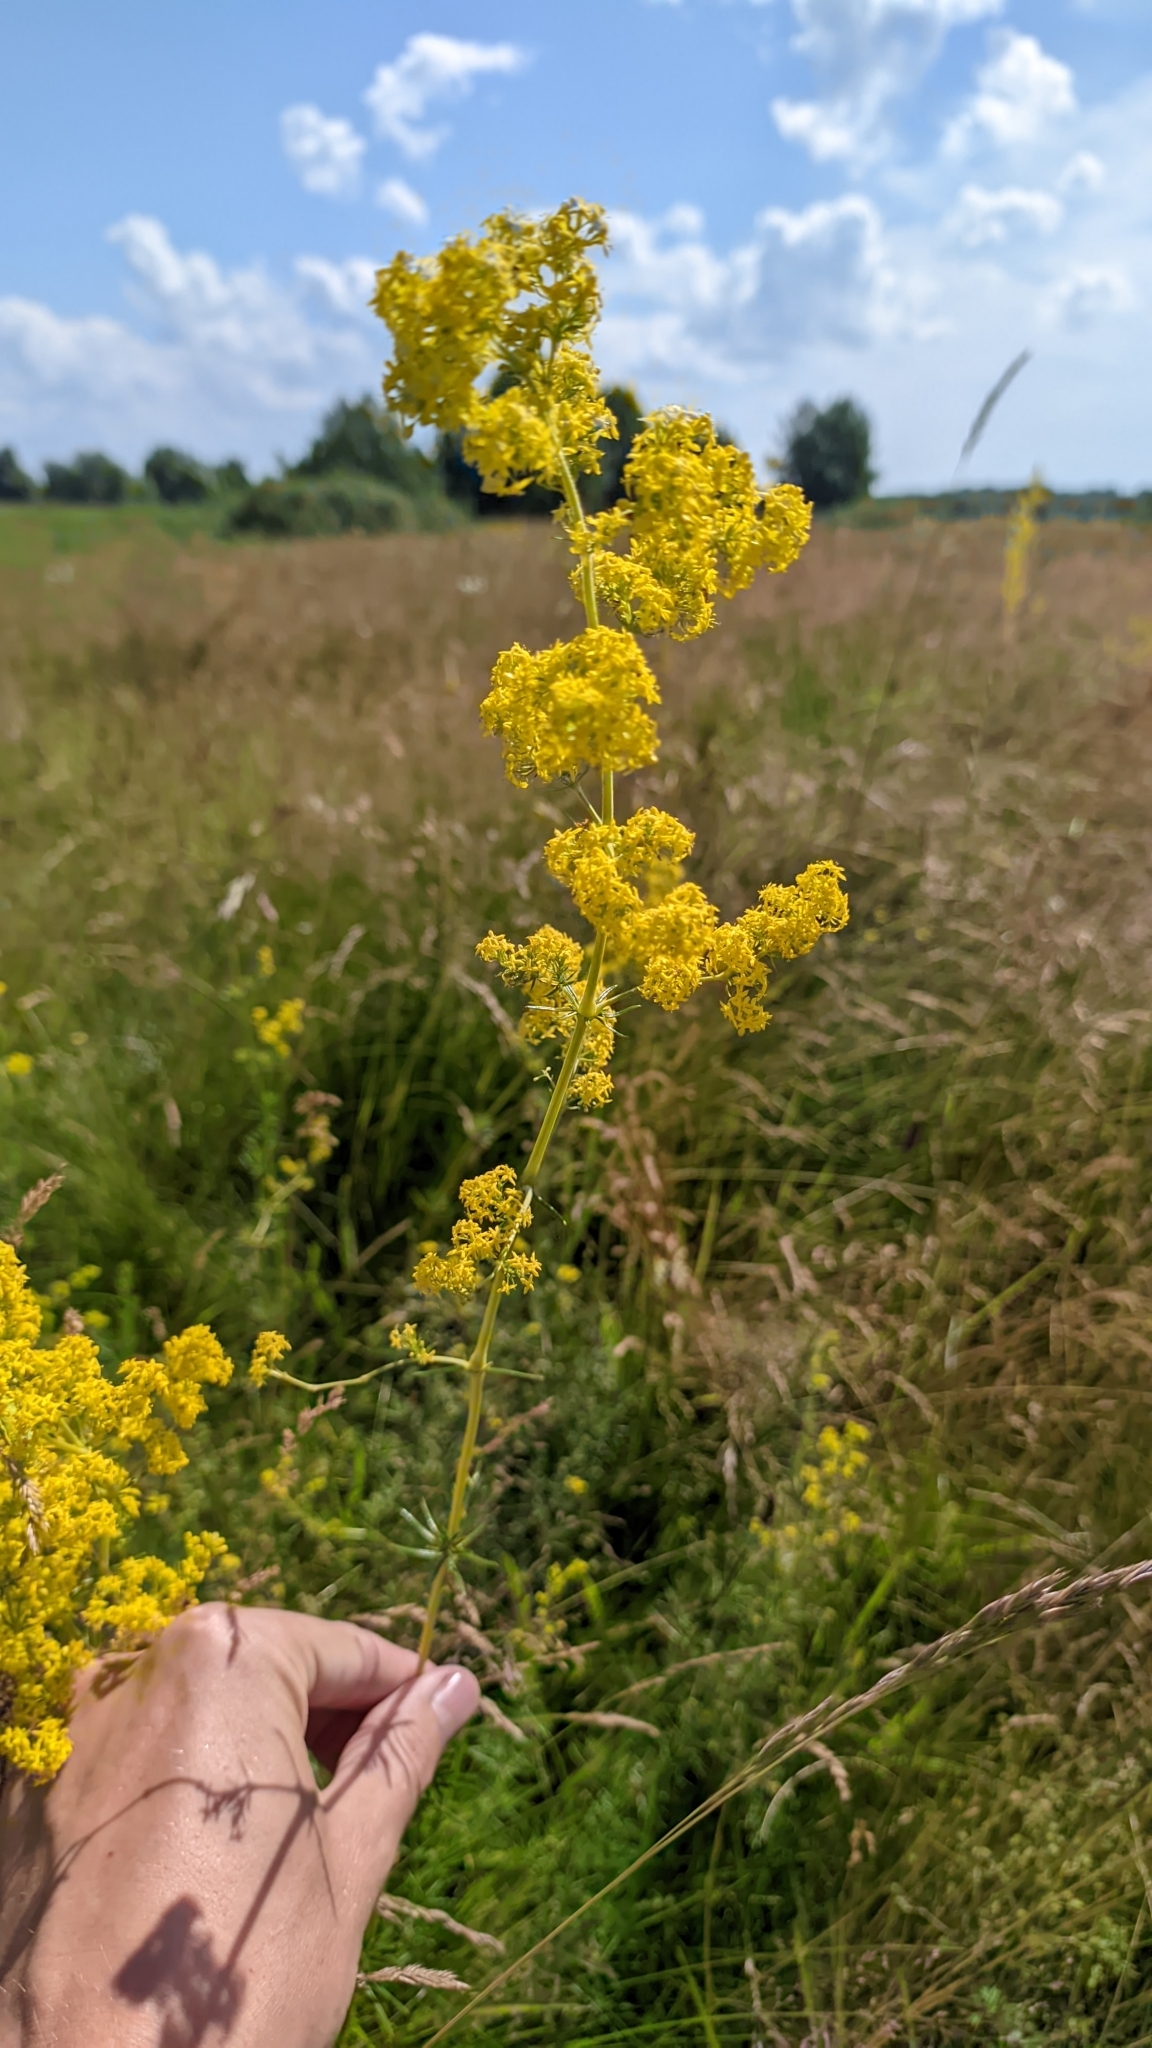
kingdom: Plantae
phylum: Tracheophyta
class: Magnoliopsida
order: Gentianales
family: Rubiaceae
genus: Galium
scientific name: Galium verum
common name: Lady's bedstraw
